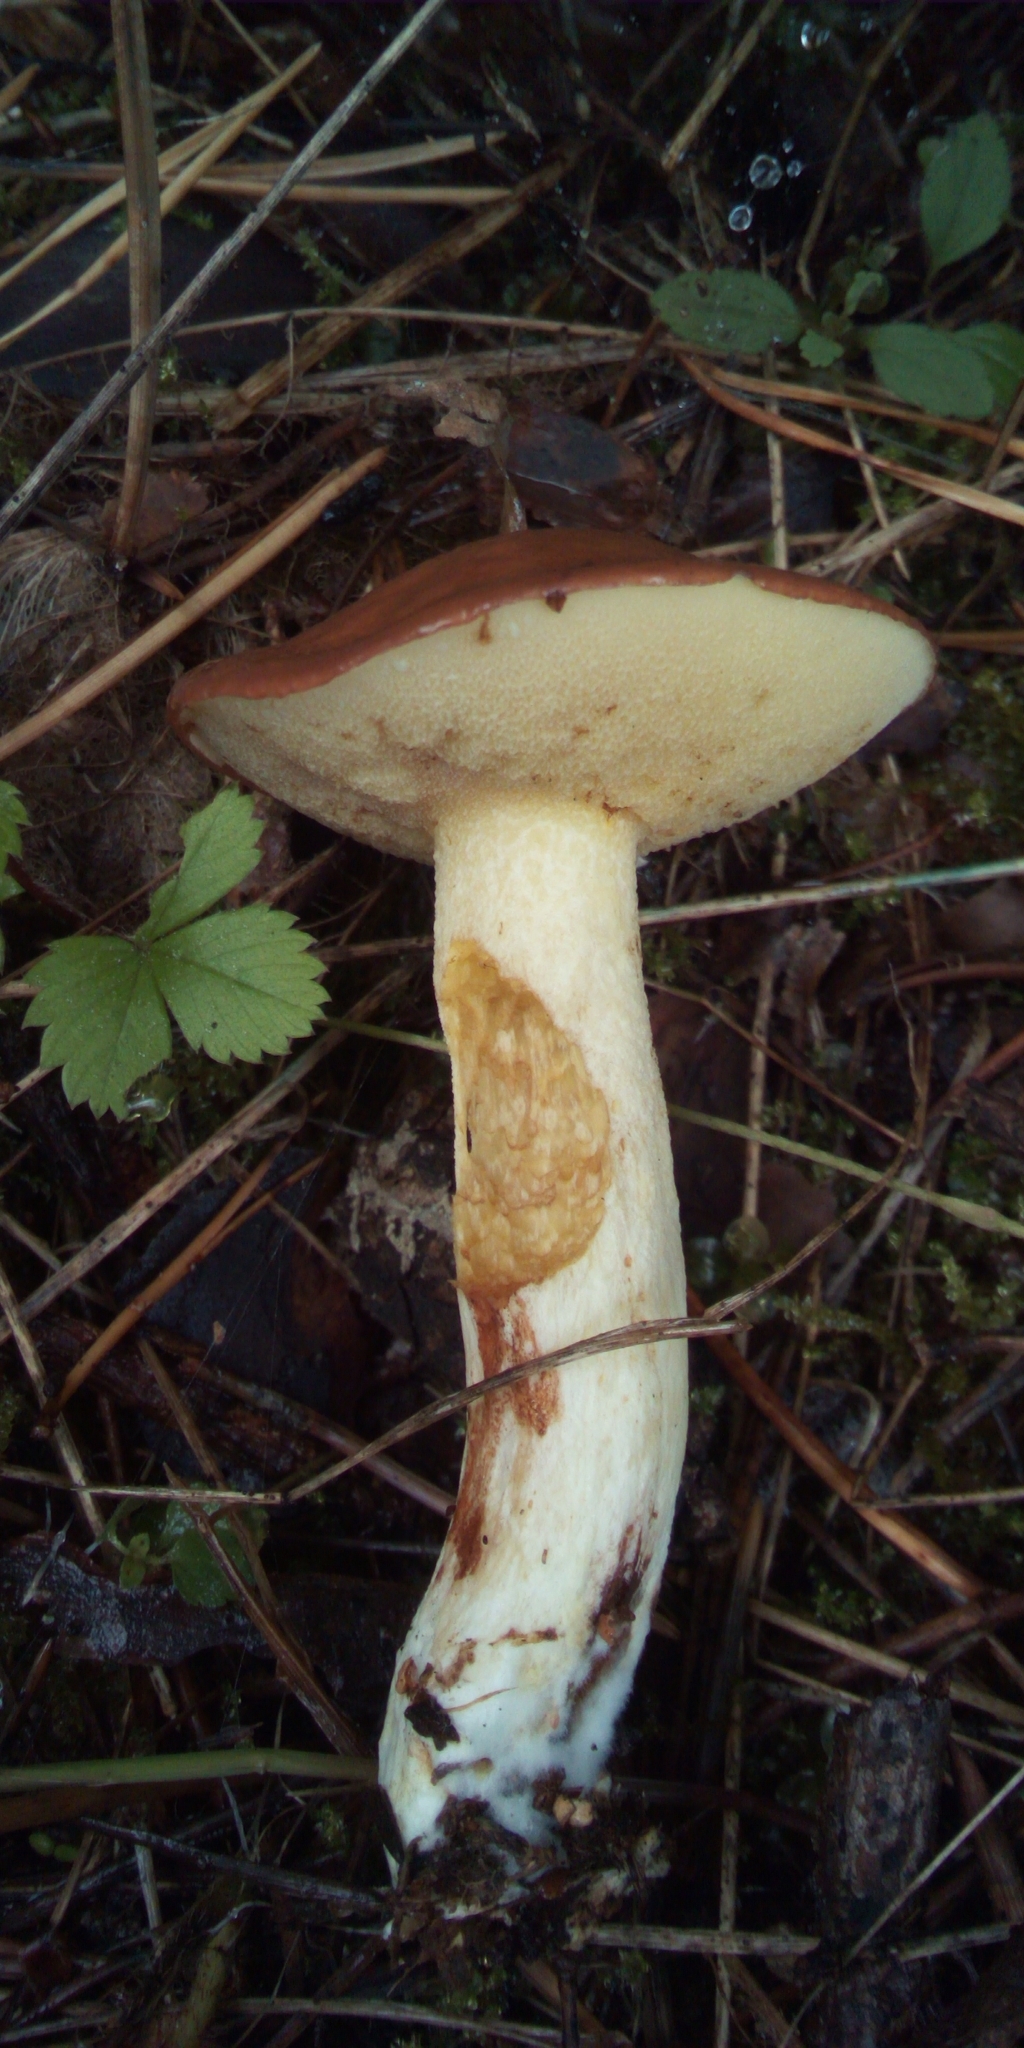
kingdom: Fungi
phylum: Basidiomycota
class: Agaricomycetes
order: Boletales
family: Suillaceae
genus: Suillus
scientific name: Suillus granulatus
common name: Weeping bolete
